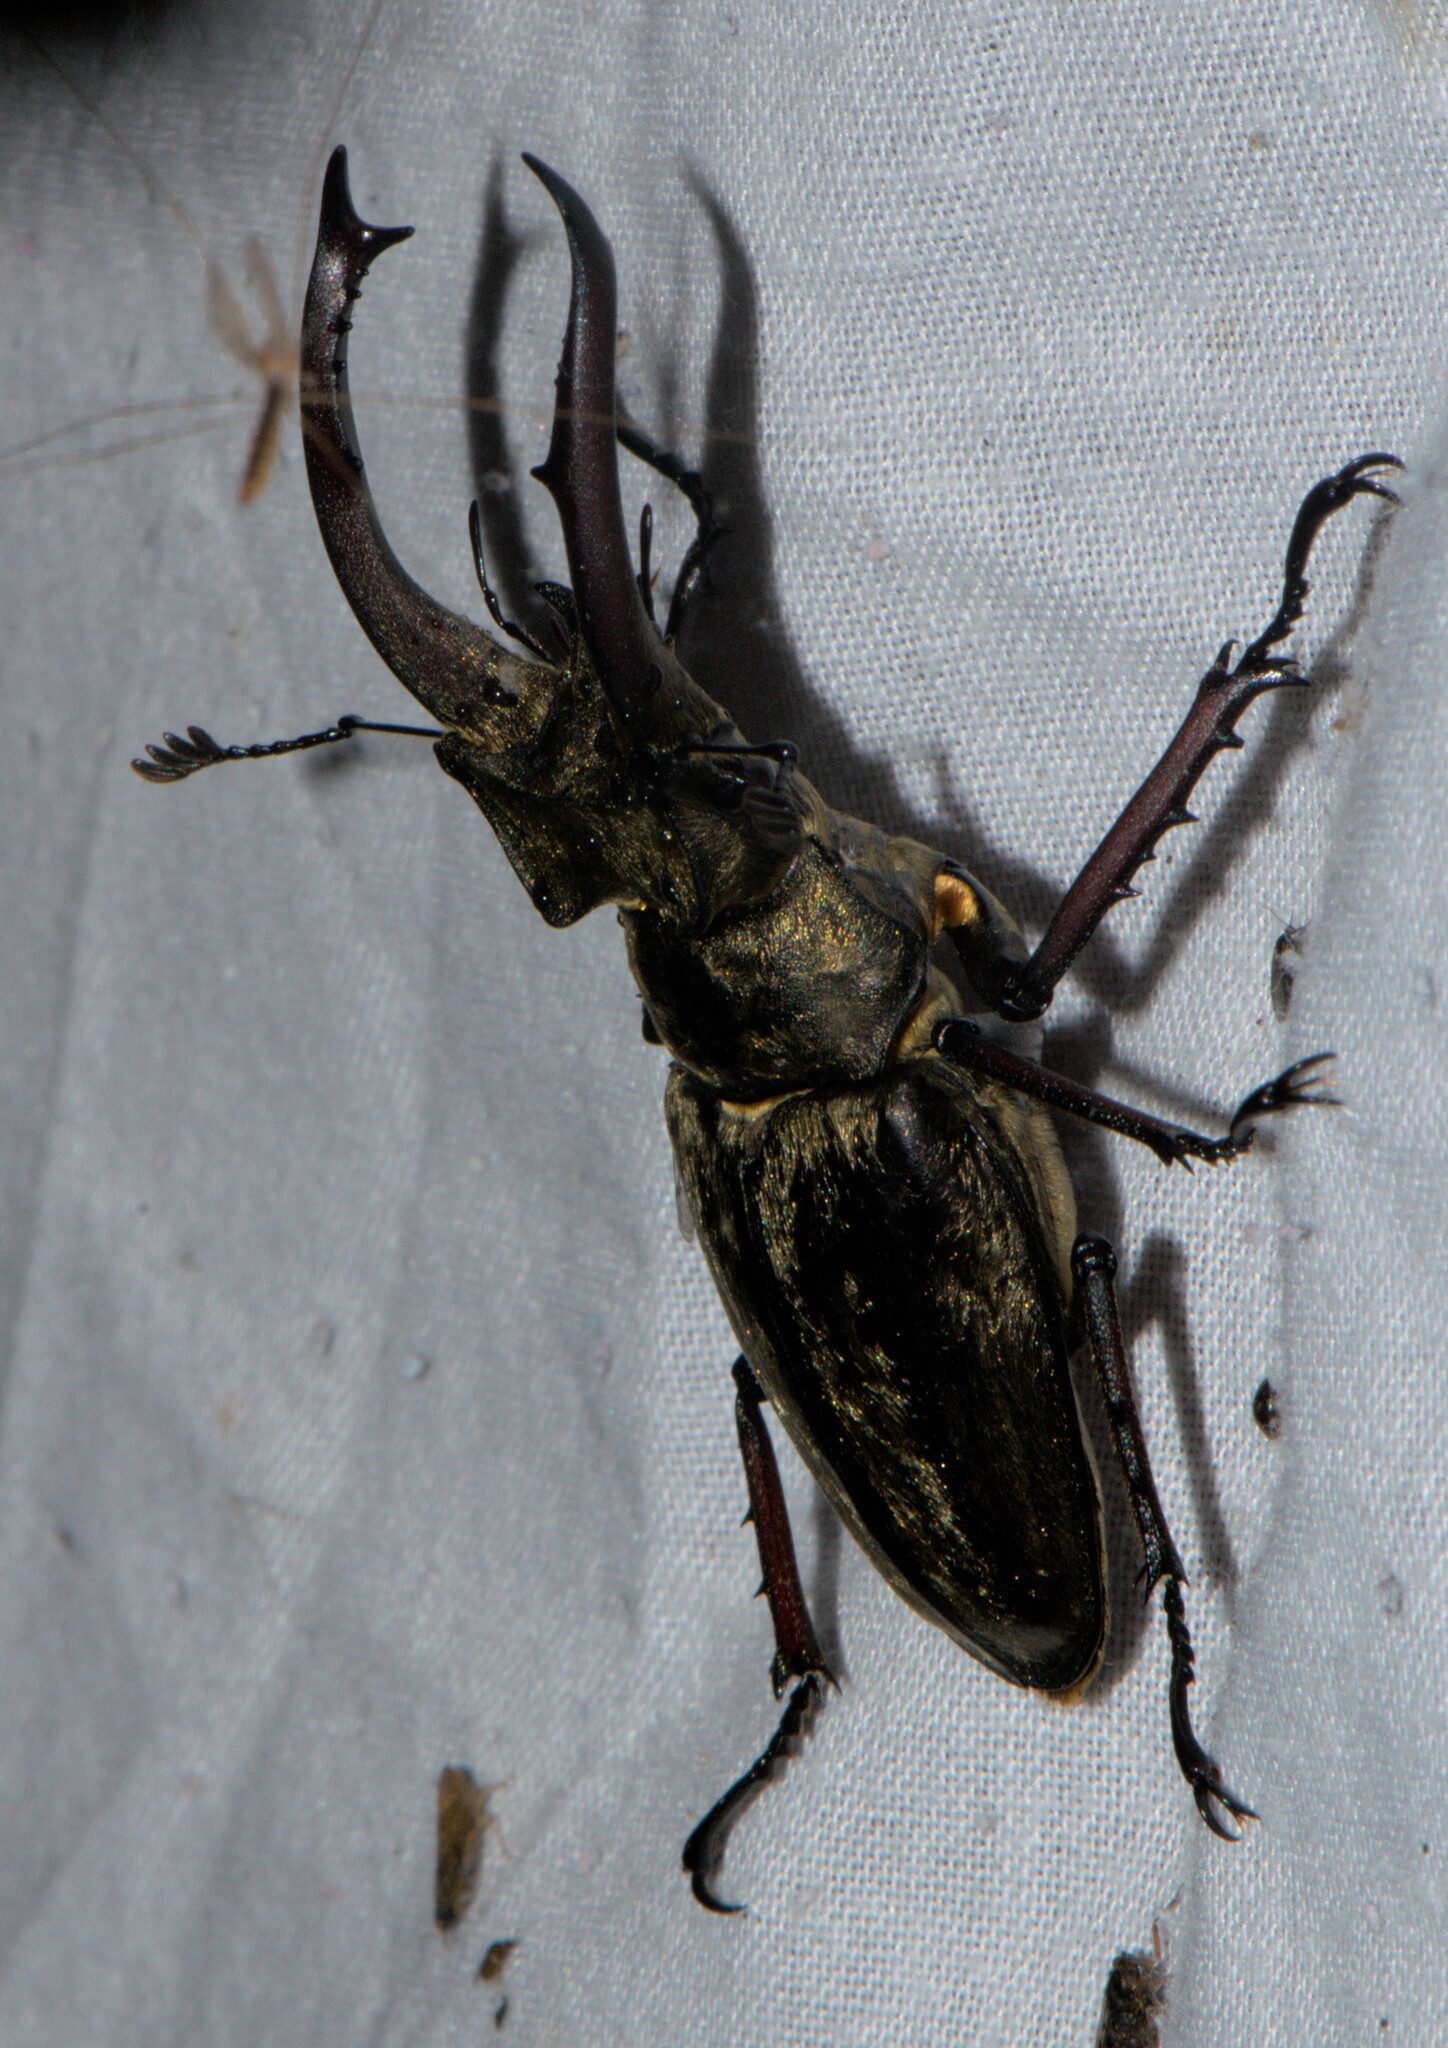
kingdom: Animalia
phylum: Arthropoda
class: Insecta
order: Coleoptera
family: Lucanidae
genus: Lucanus
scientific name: Lucanus lunifer
